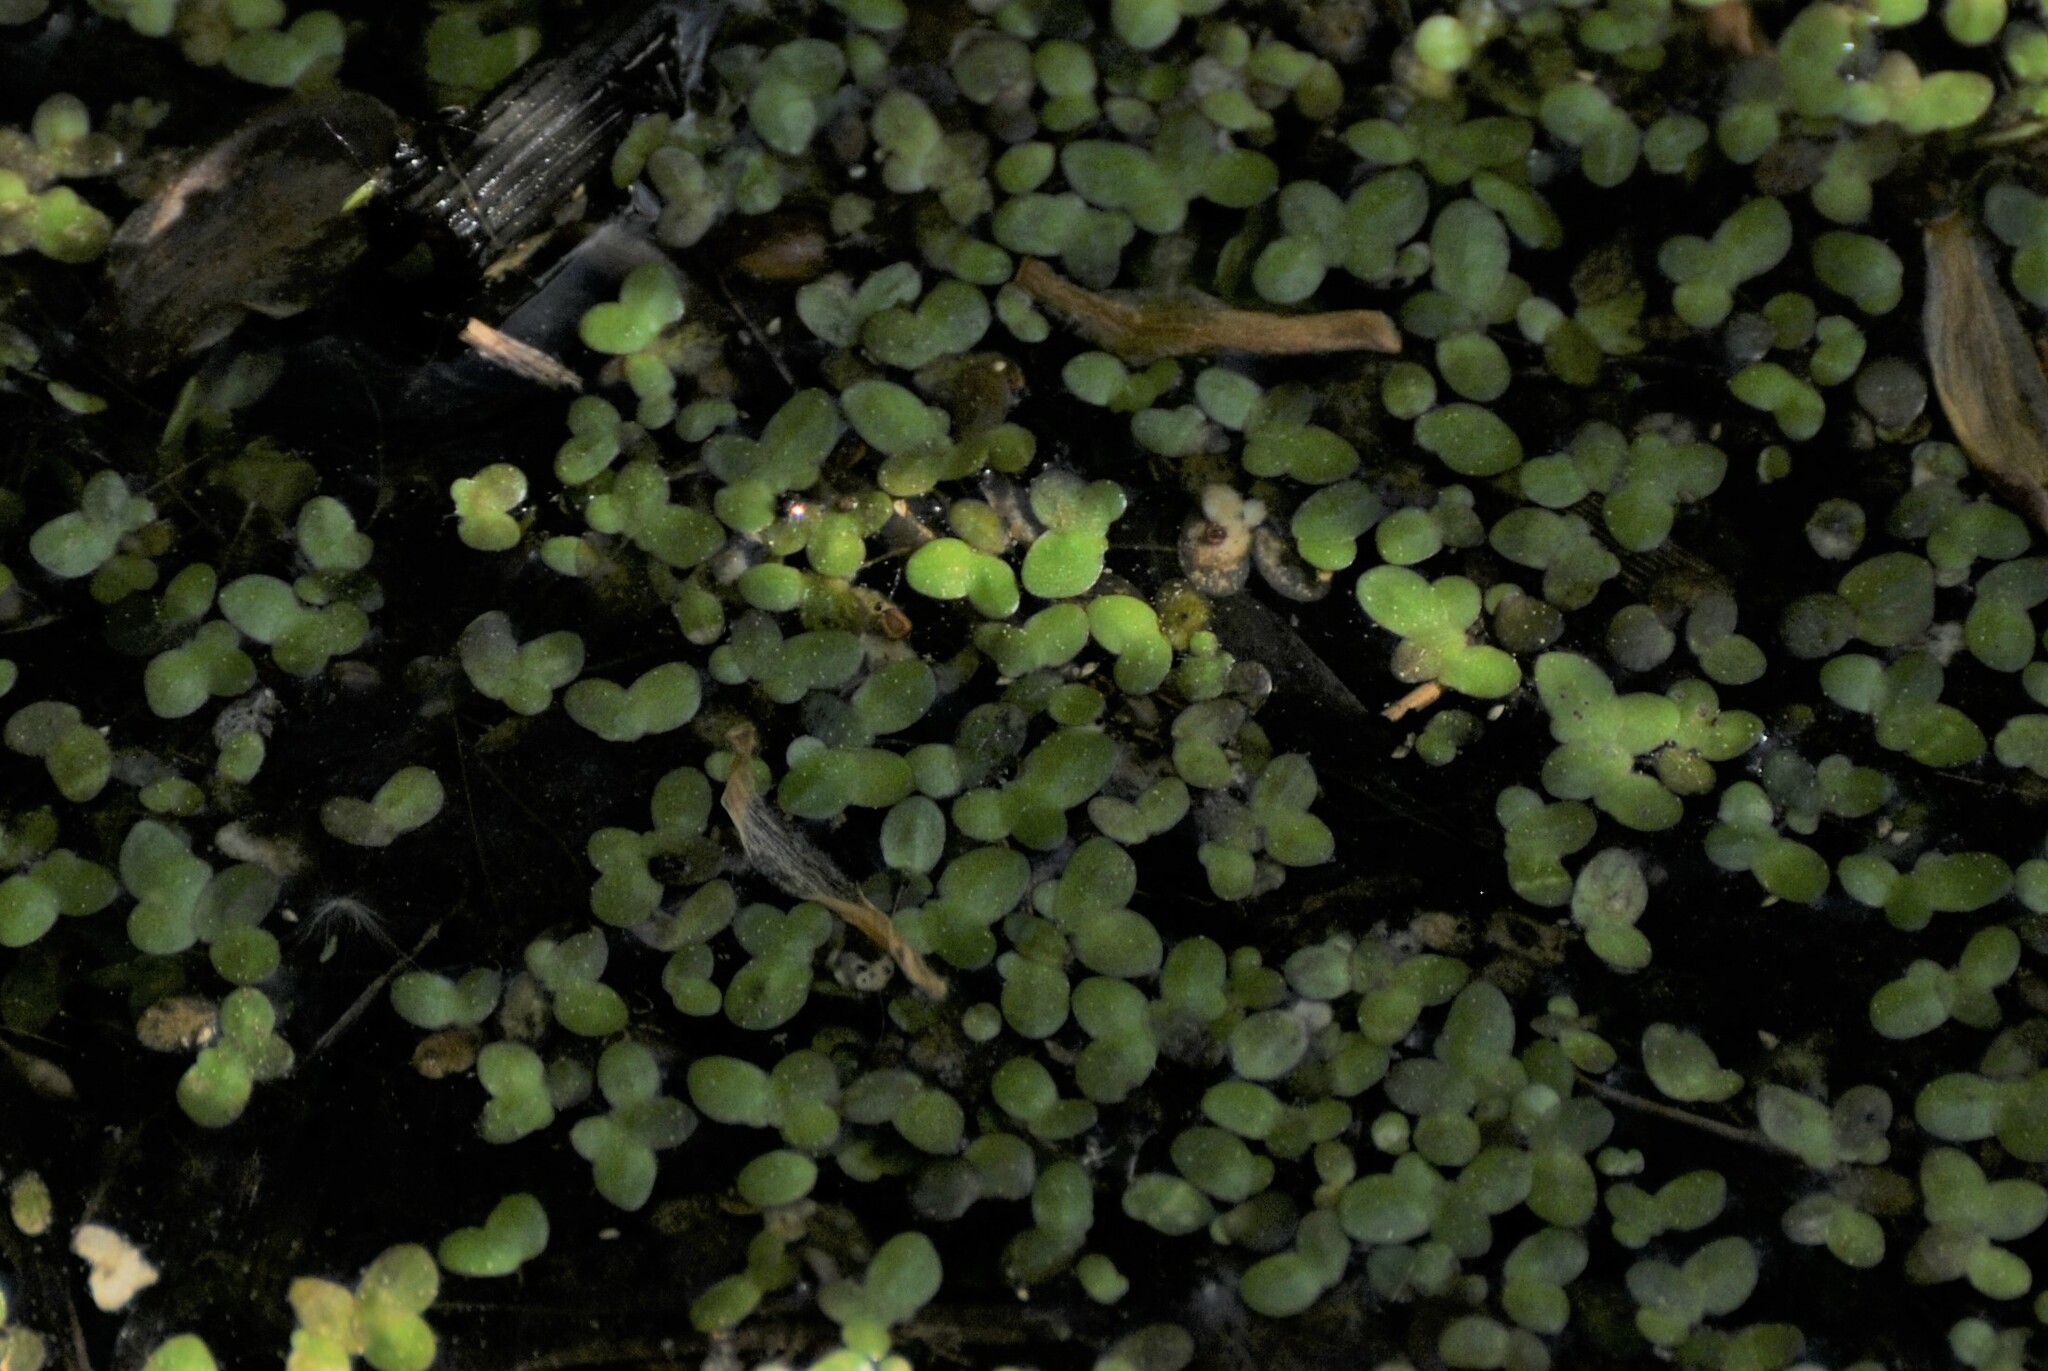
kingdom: Plantae
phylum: Tracheophyta
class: Liliopsida
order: Alismatales
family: Araceae
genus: Lemna
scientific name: Lemna minor
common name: Common duckweed
